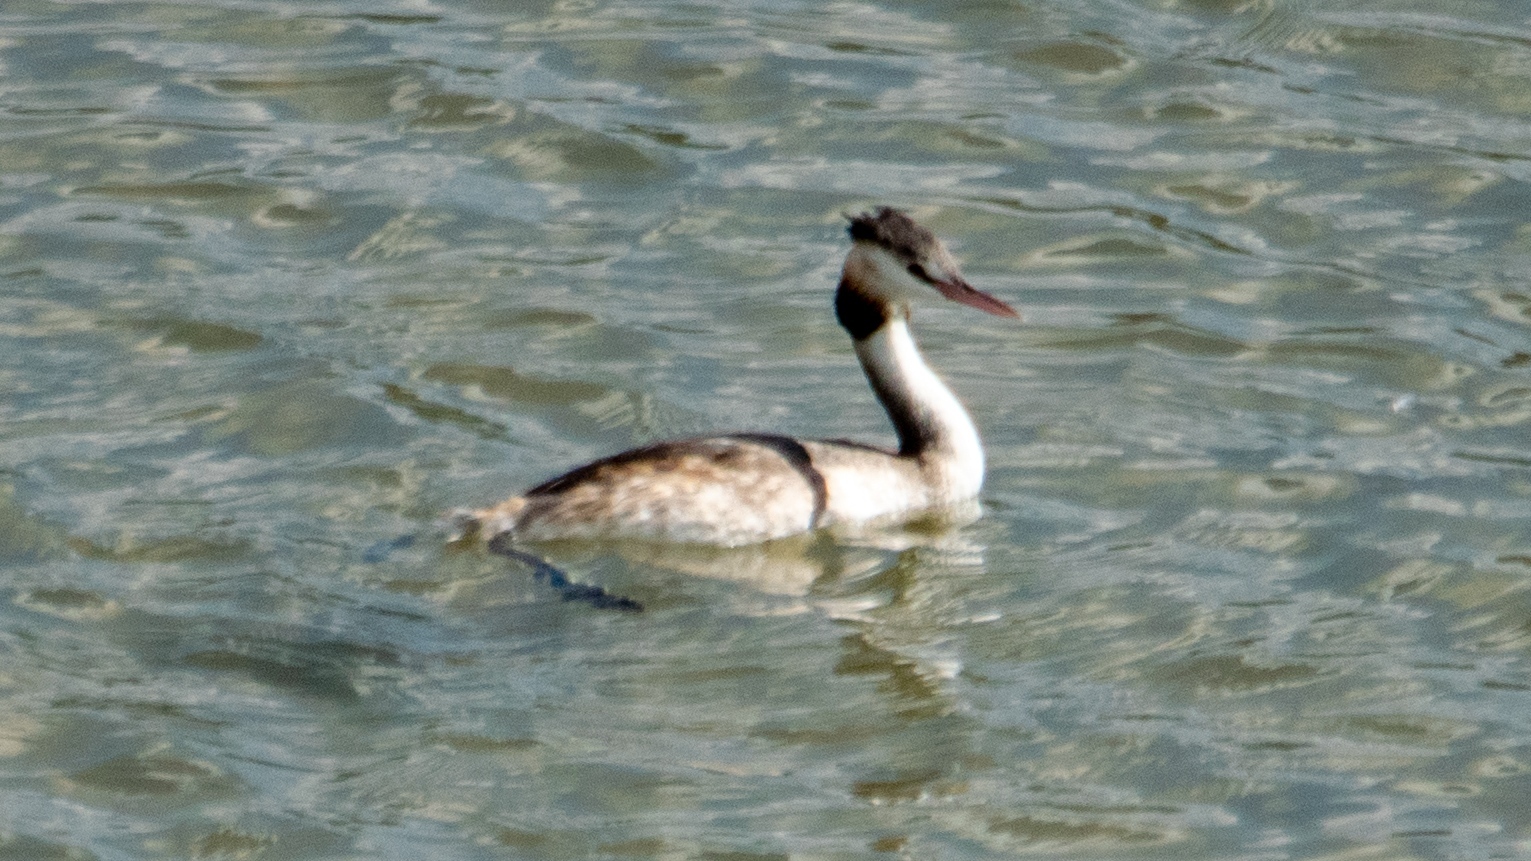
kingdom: Animalia
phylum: Chordata
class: Aves
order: Podicipediformes
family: Podicipedidae
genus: Podiceps
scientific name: Podiceps cristatus
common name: Great crested grebe
